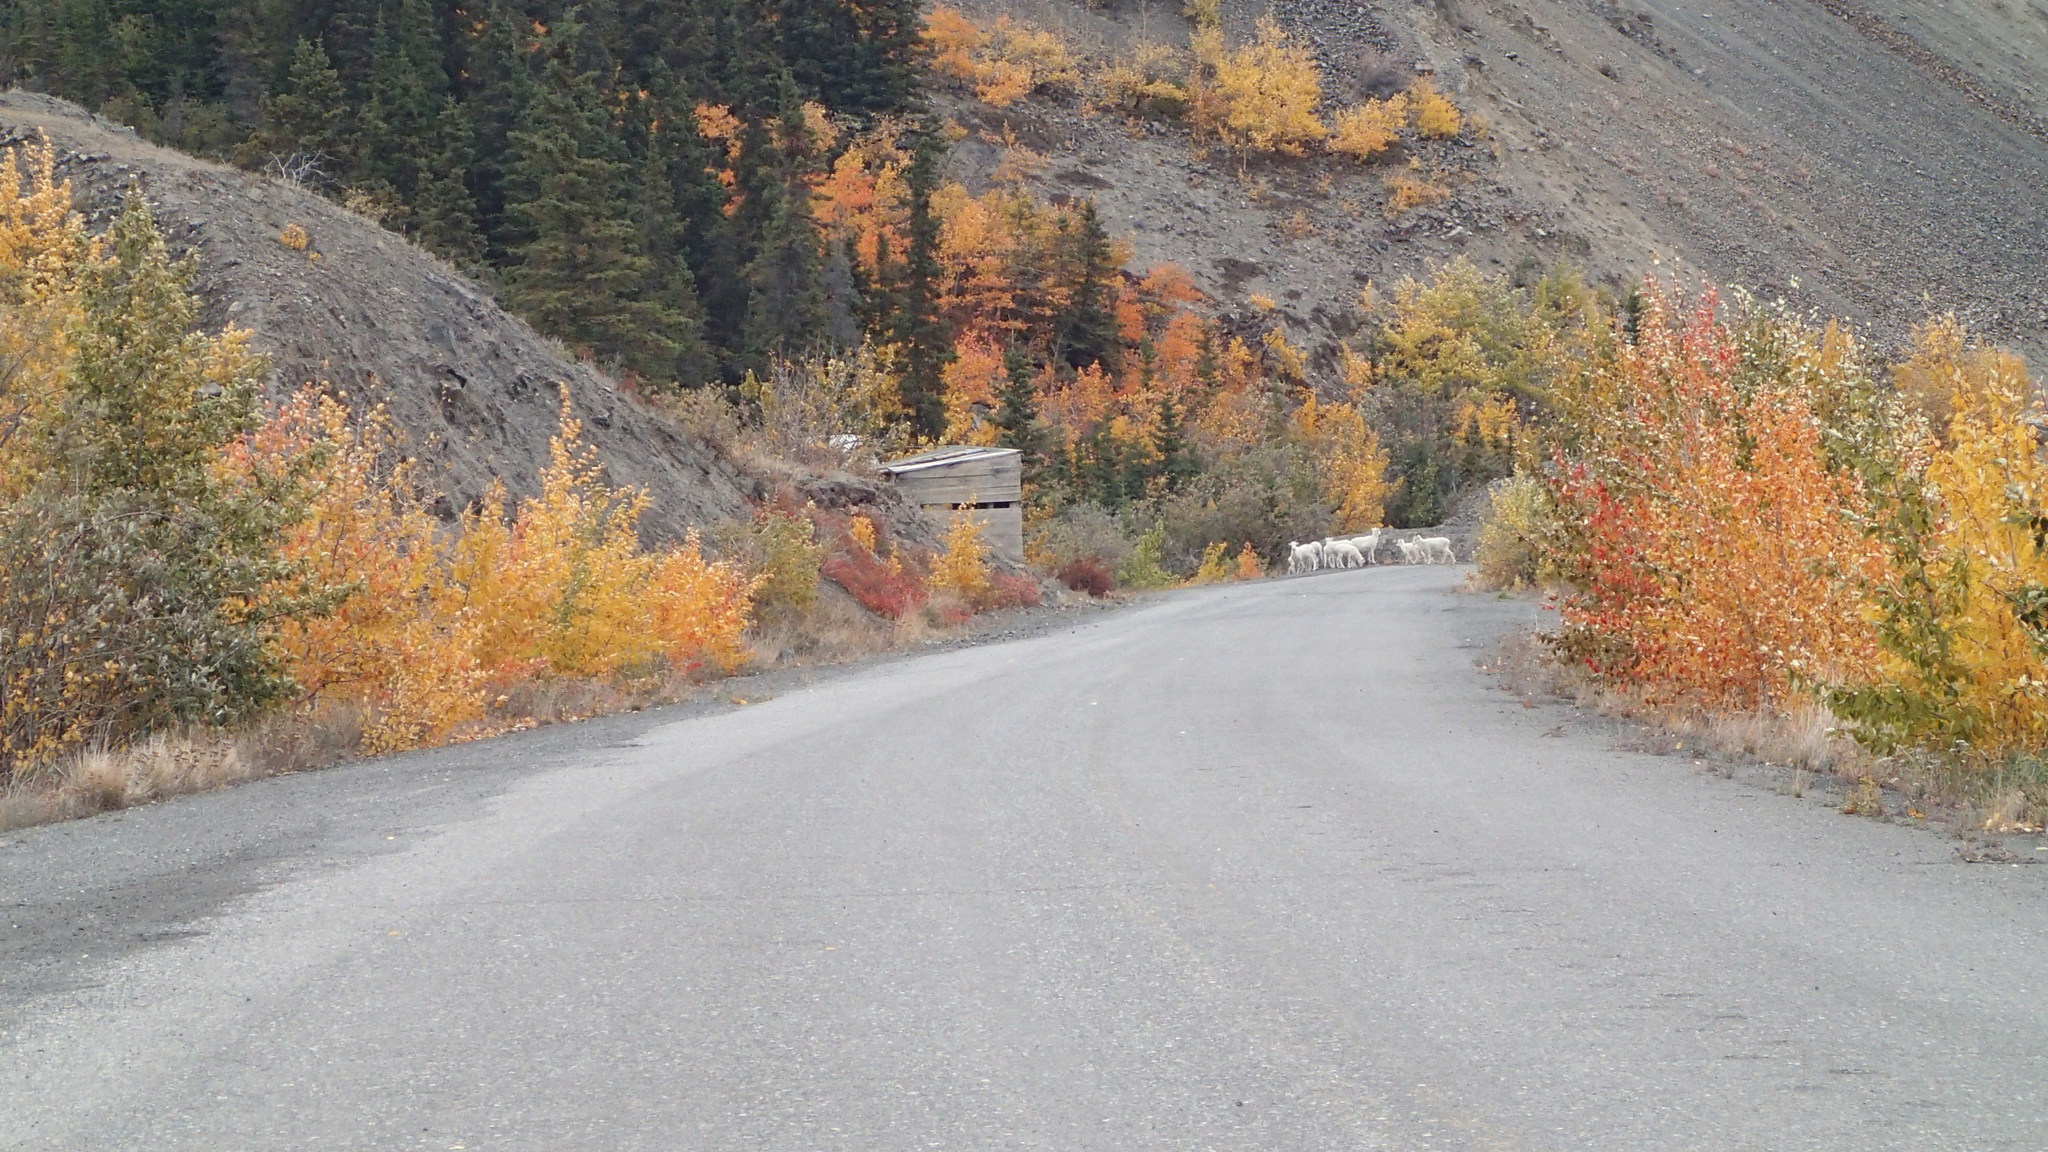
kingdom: Animalia
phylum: Chordata
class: Mammalia
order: Artiodactyla
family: Bovidae
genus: Ovis
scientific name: Ovis dalli
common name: Dall's sheep
